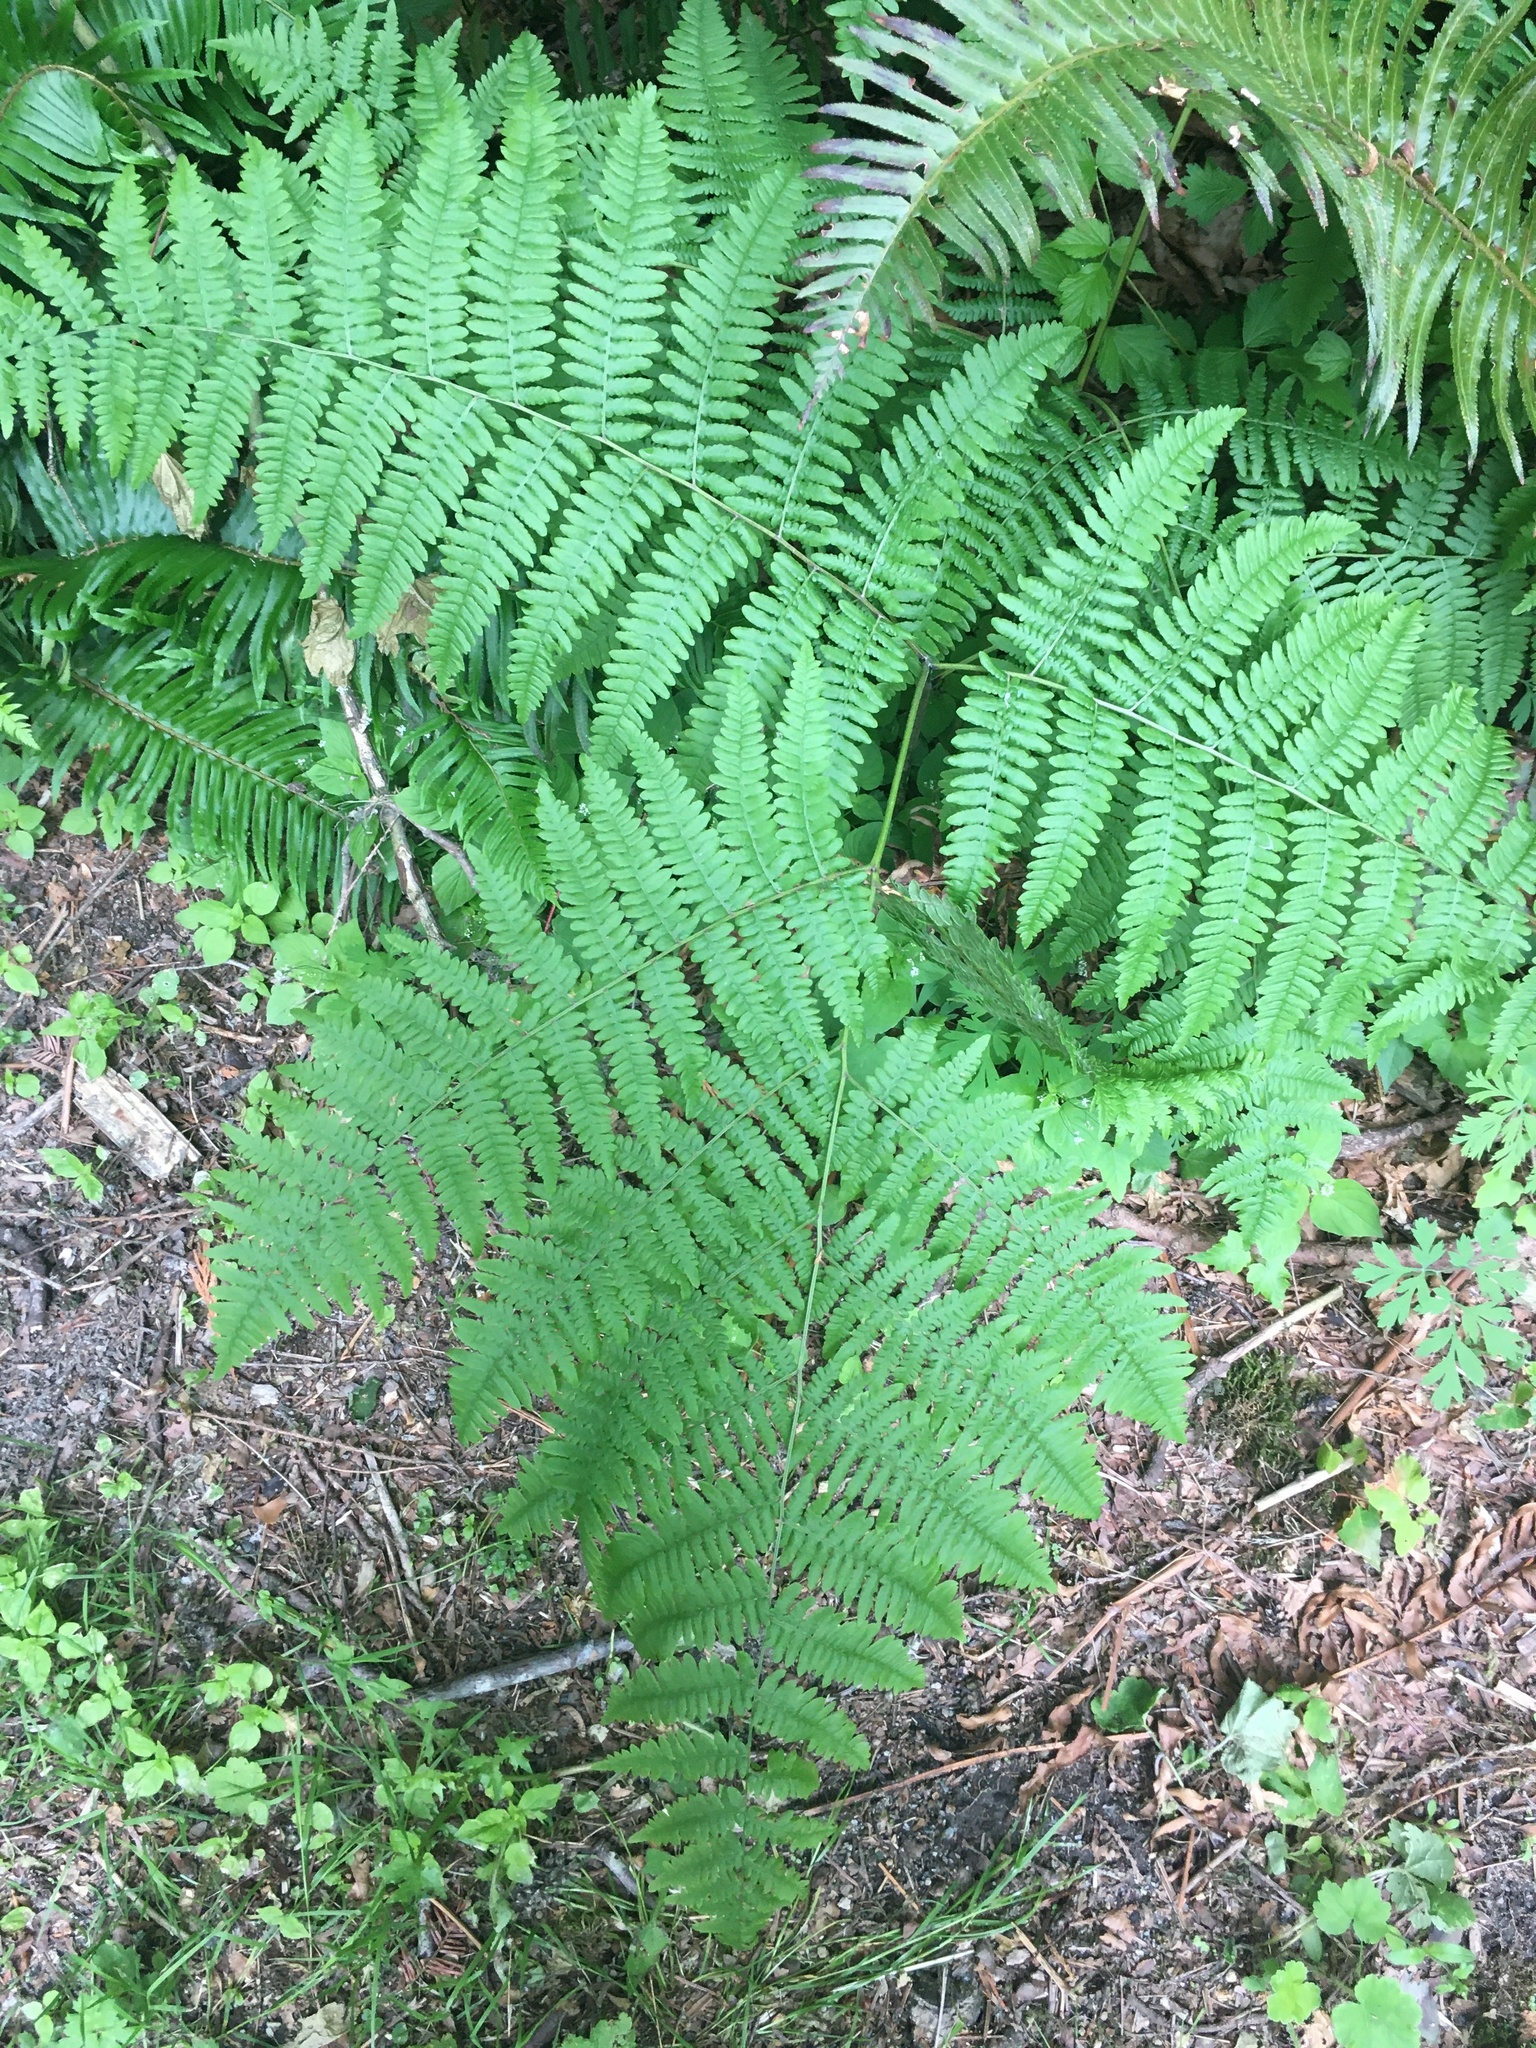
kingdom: Plantae
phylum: Tracheophyta
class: Polypodiopsida
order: Polypodiales
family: Dennstaedtiaceae
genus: Pteridium
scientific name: Pteridium aquilinum
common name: Bracken
